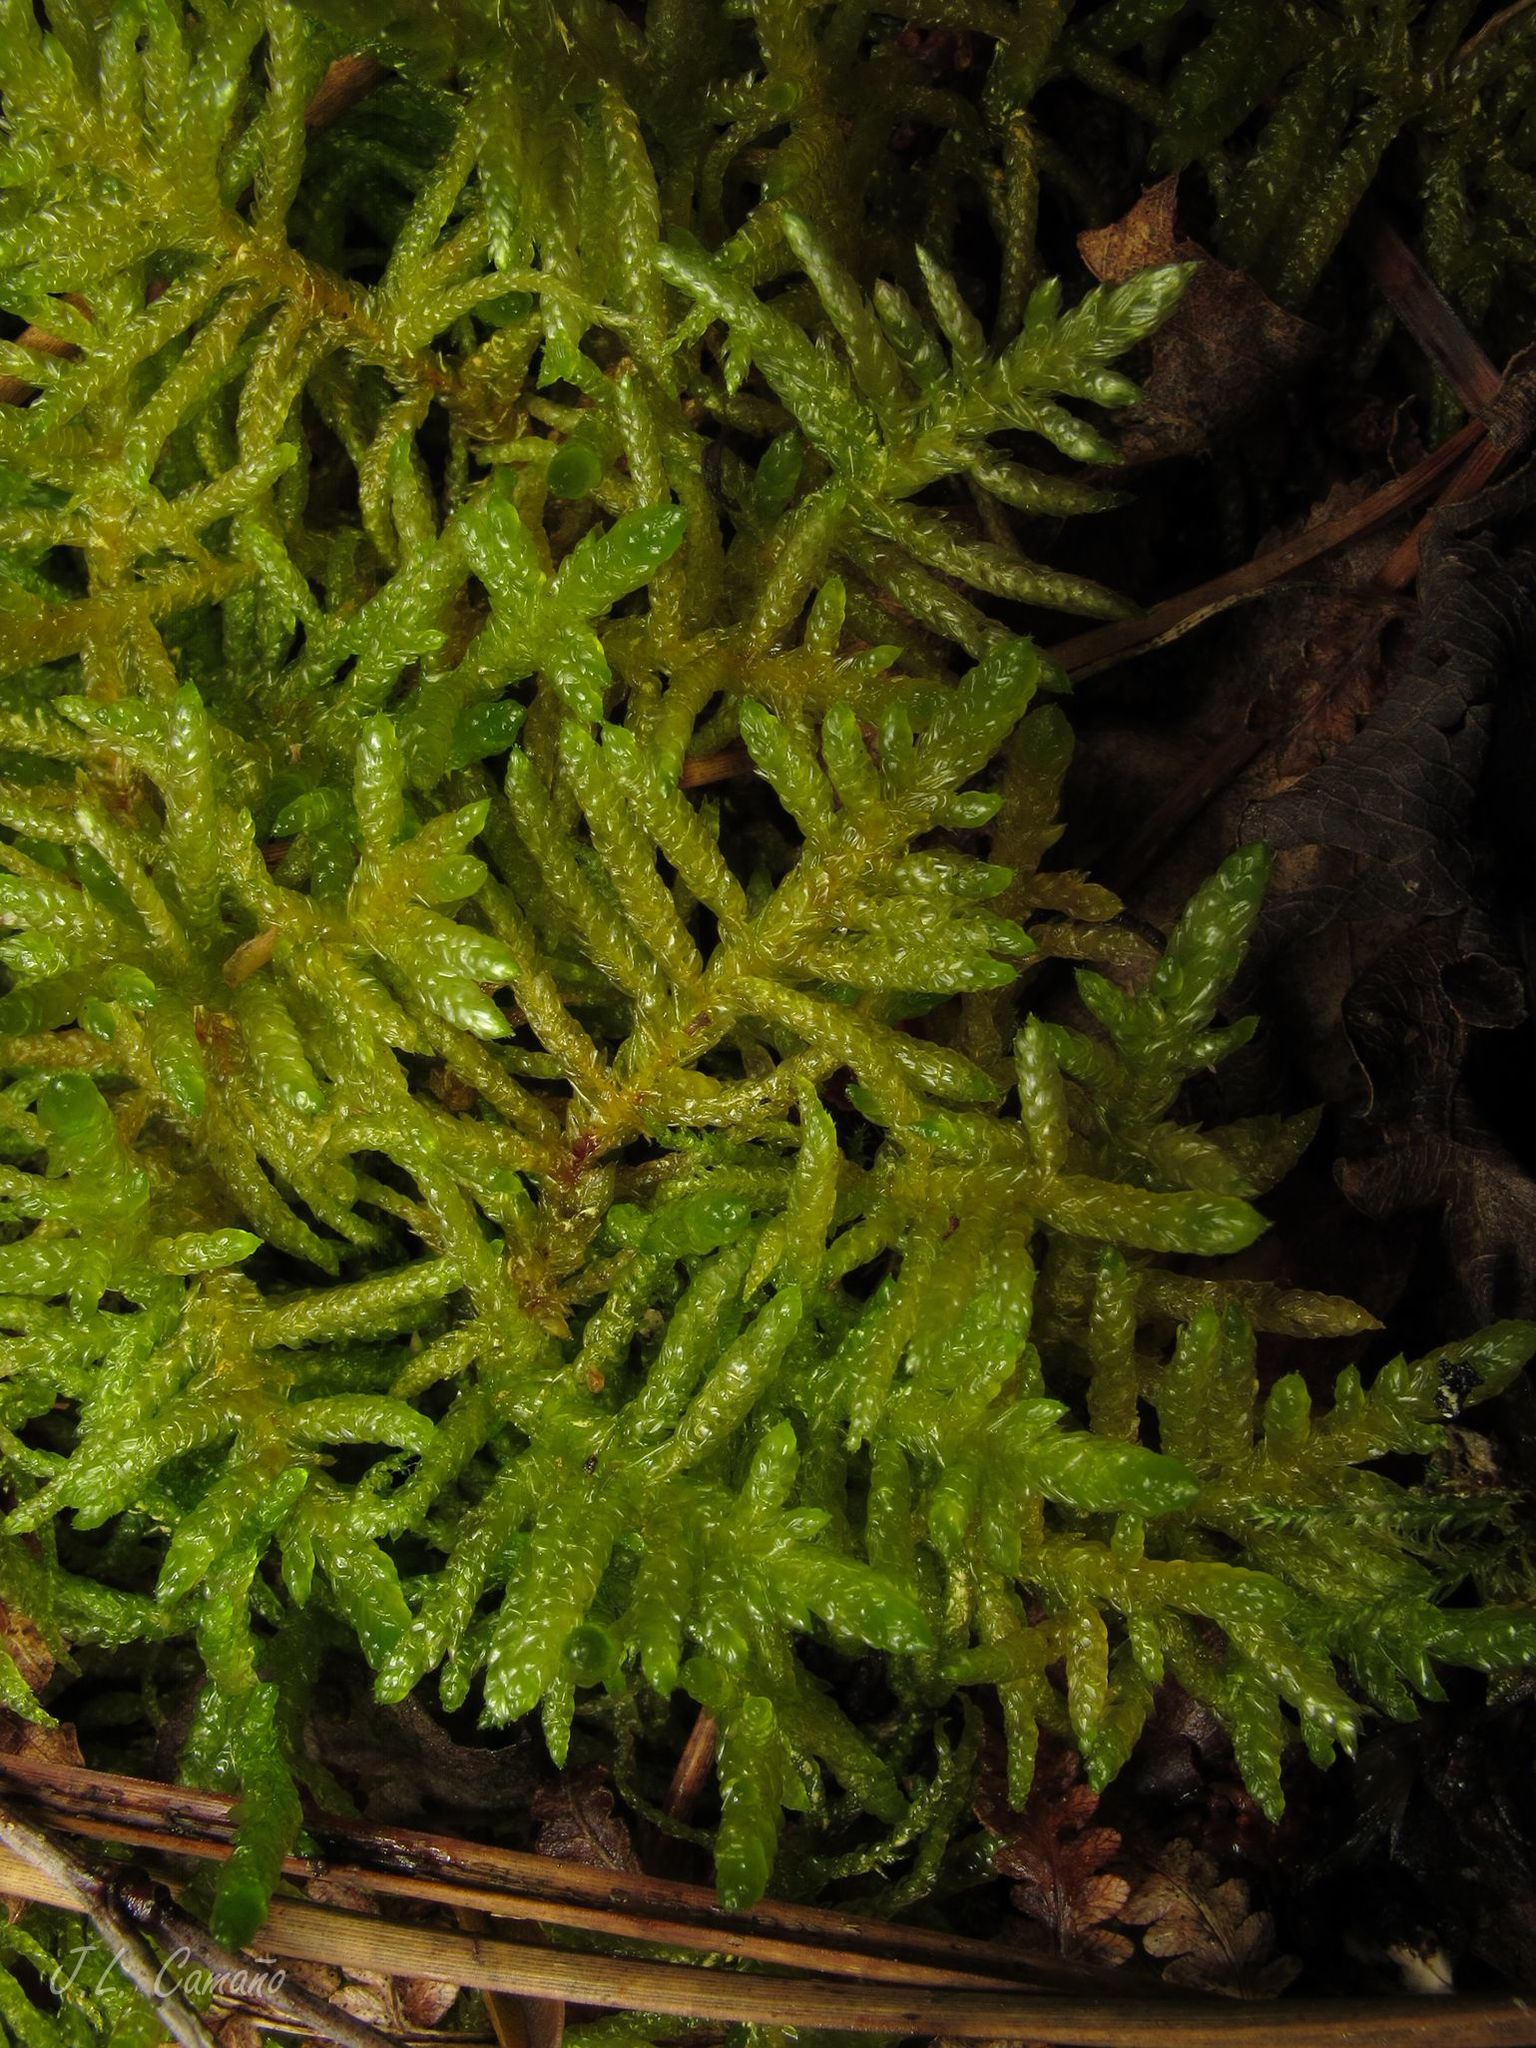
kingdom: Plantae
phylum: Bryophyta
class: Bryopsida
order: Hypnales
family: Brachytheciaceae
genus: Pseudoscleropodium
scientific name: Pseudoscleropodium purum
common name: Neat feather-moss
